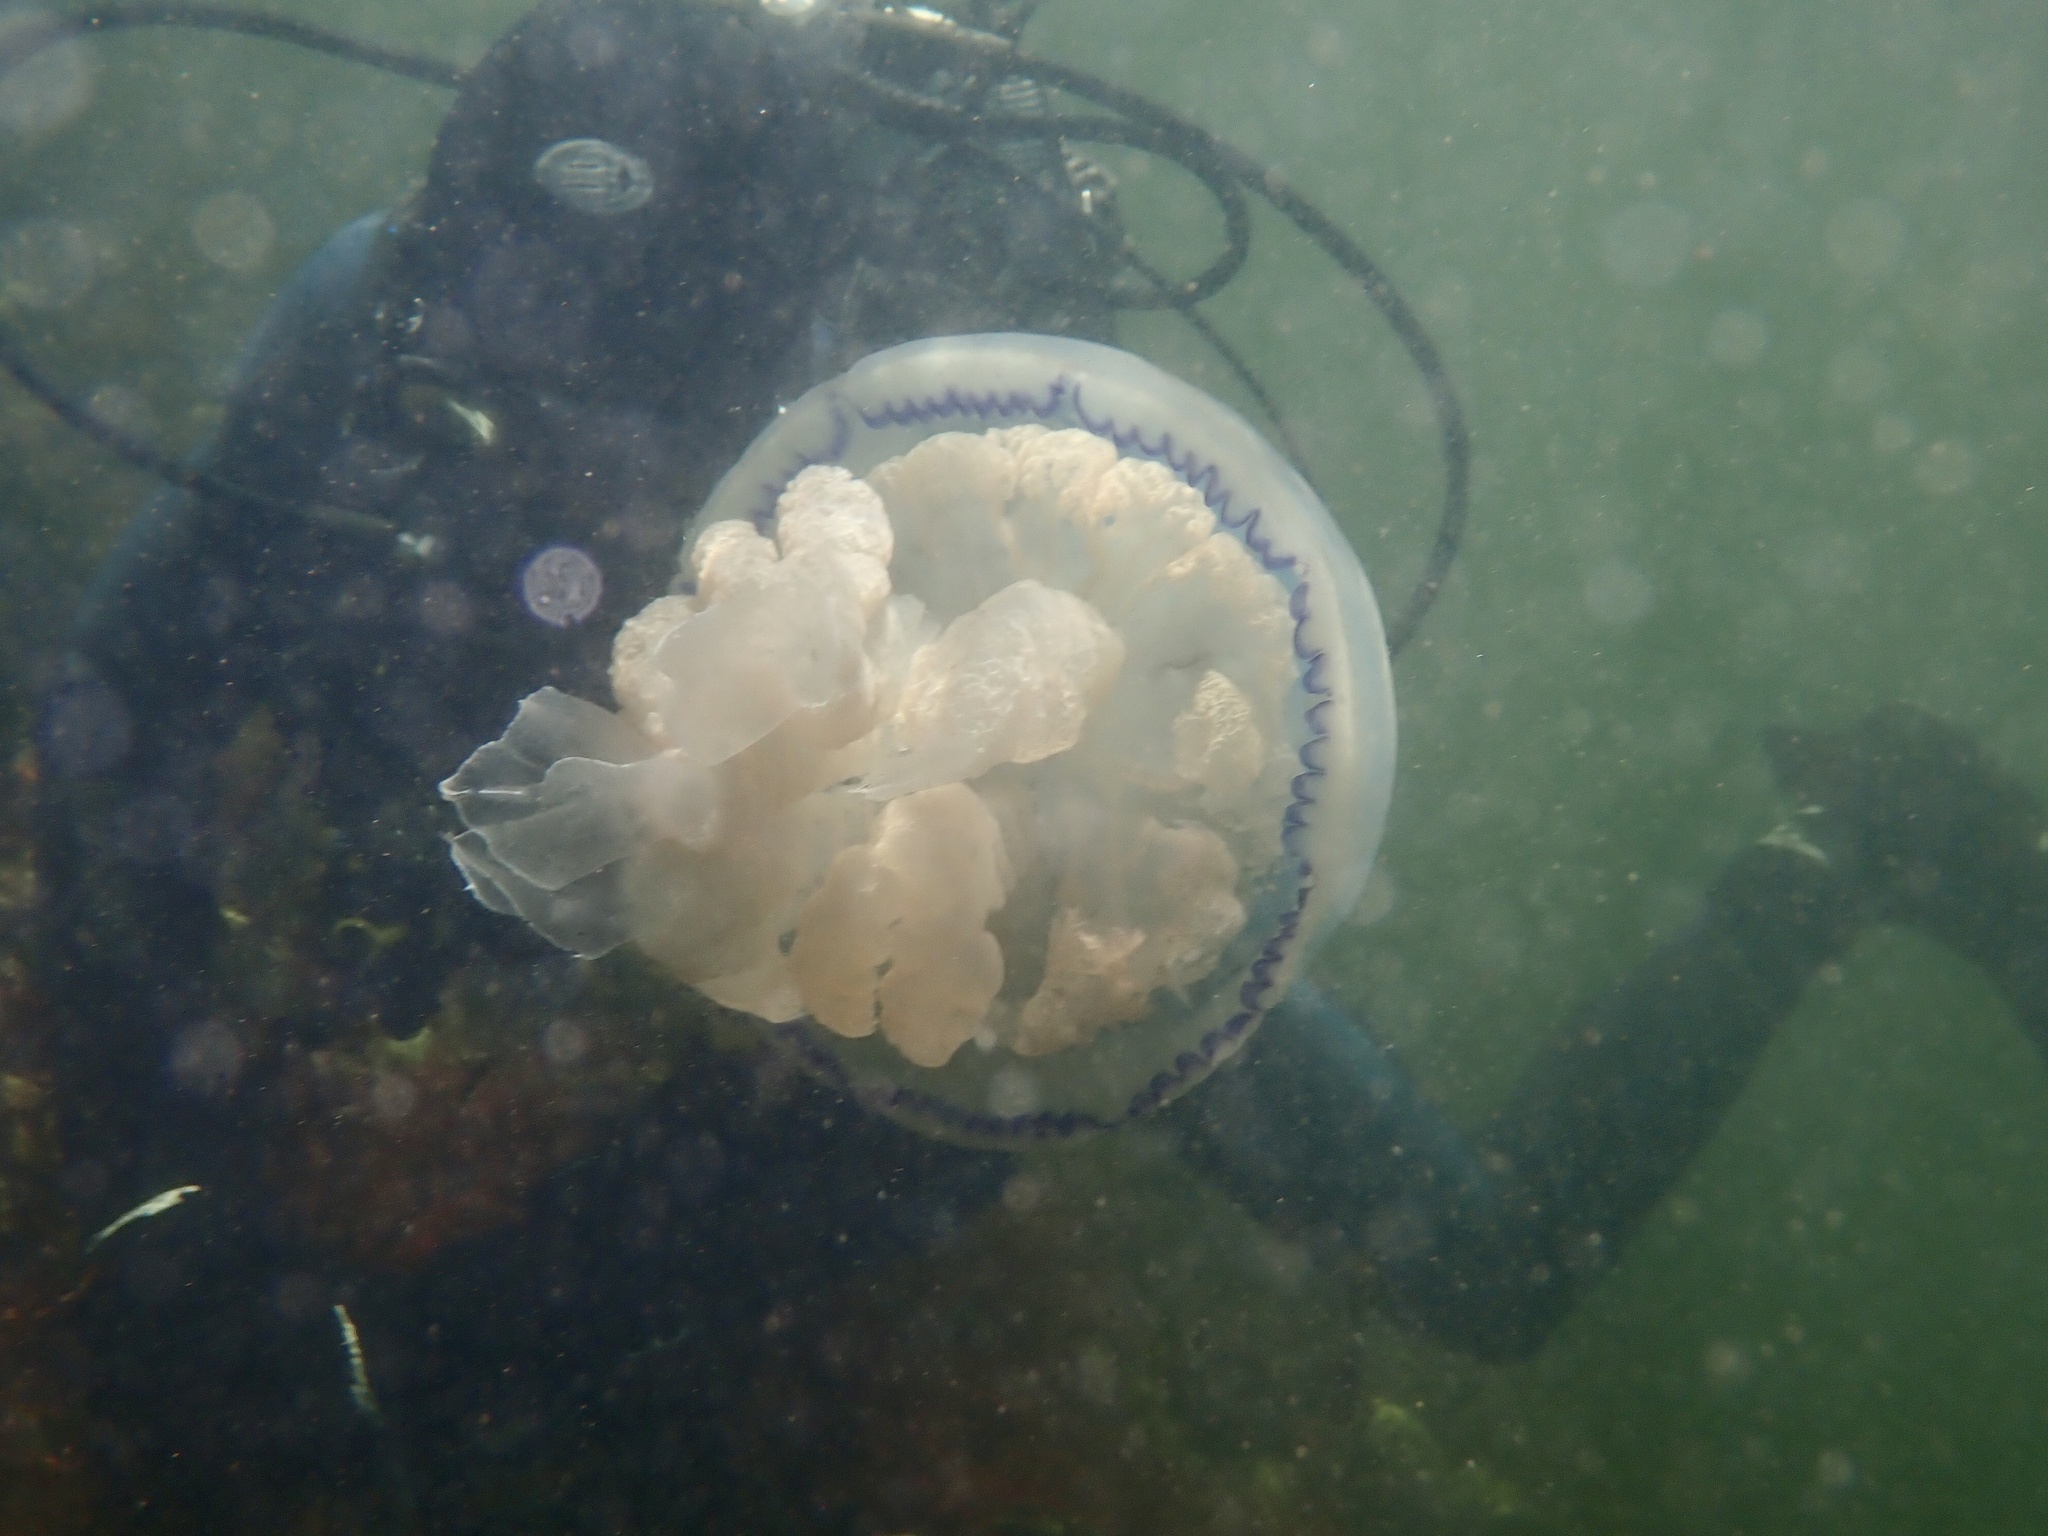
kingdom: Animalia
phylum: Cnidaria
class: Scyphozoa
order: Rhizostomeae
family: Rhizostomatidae
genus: Rhizostoma
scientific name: Rhizostoma octopus
